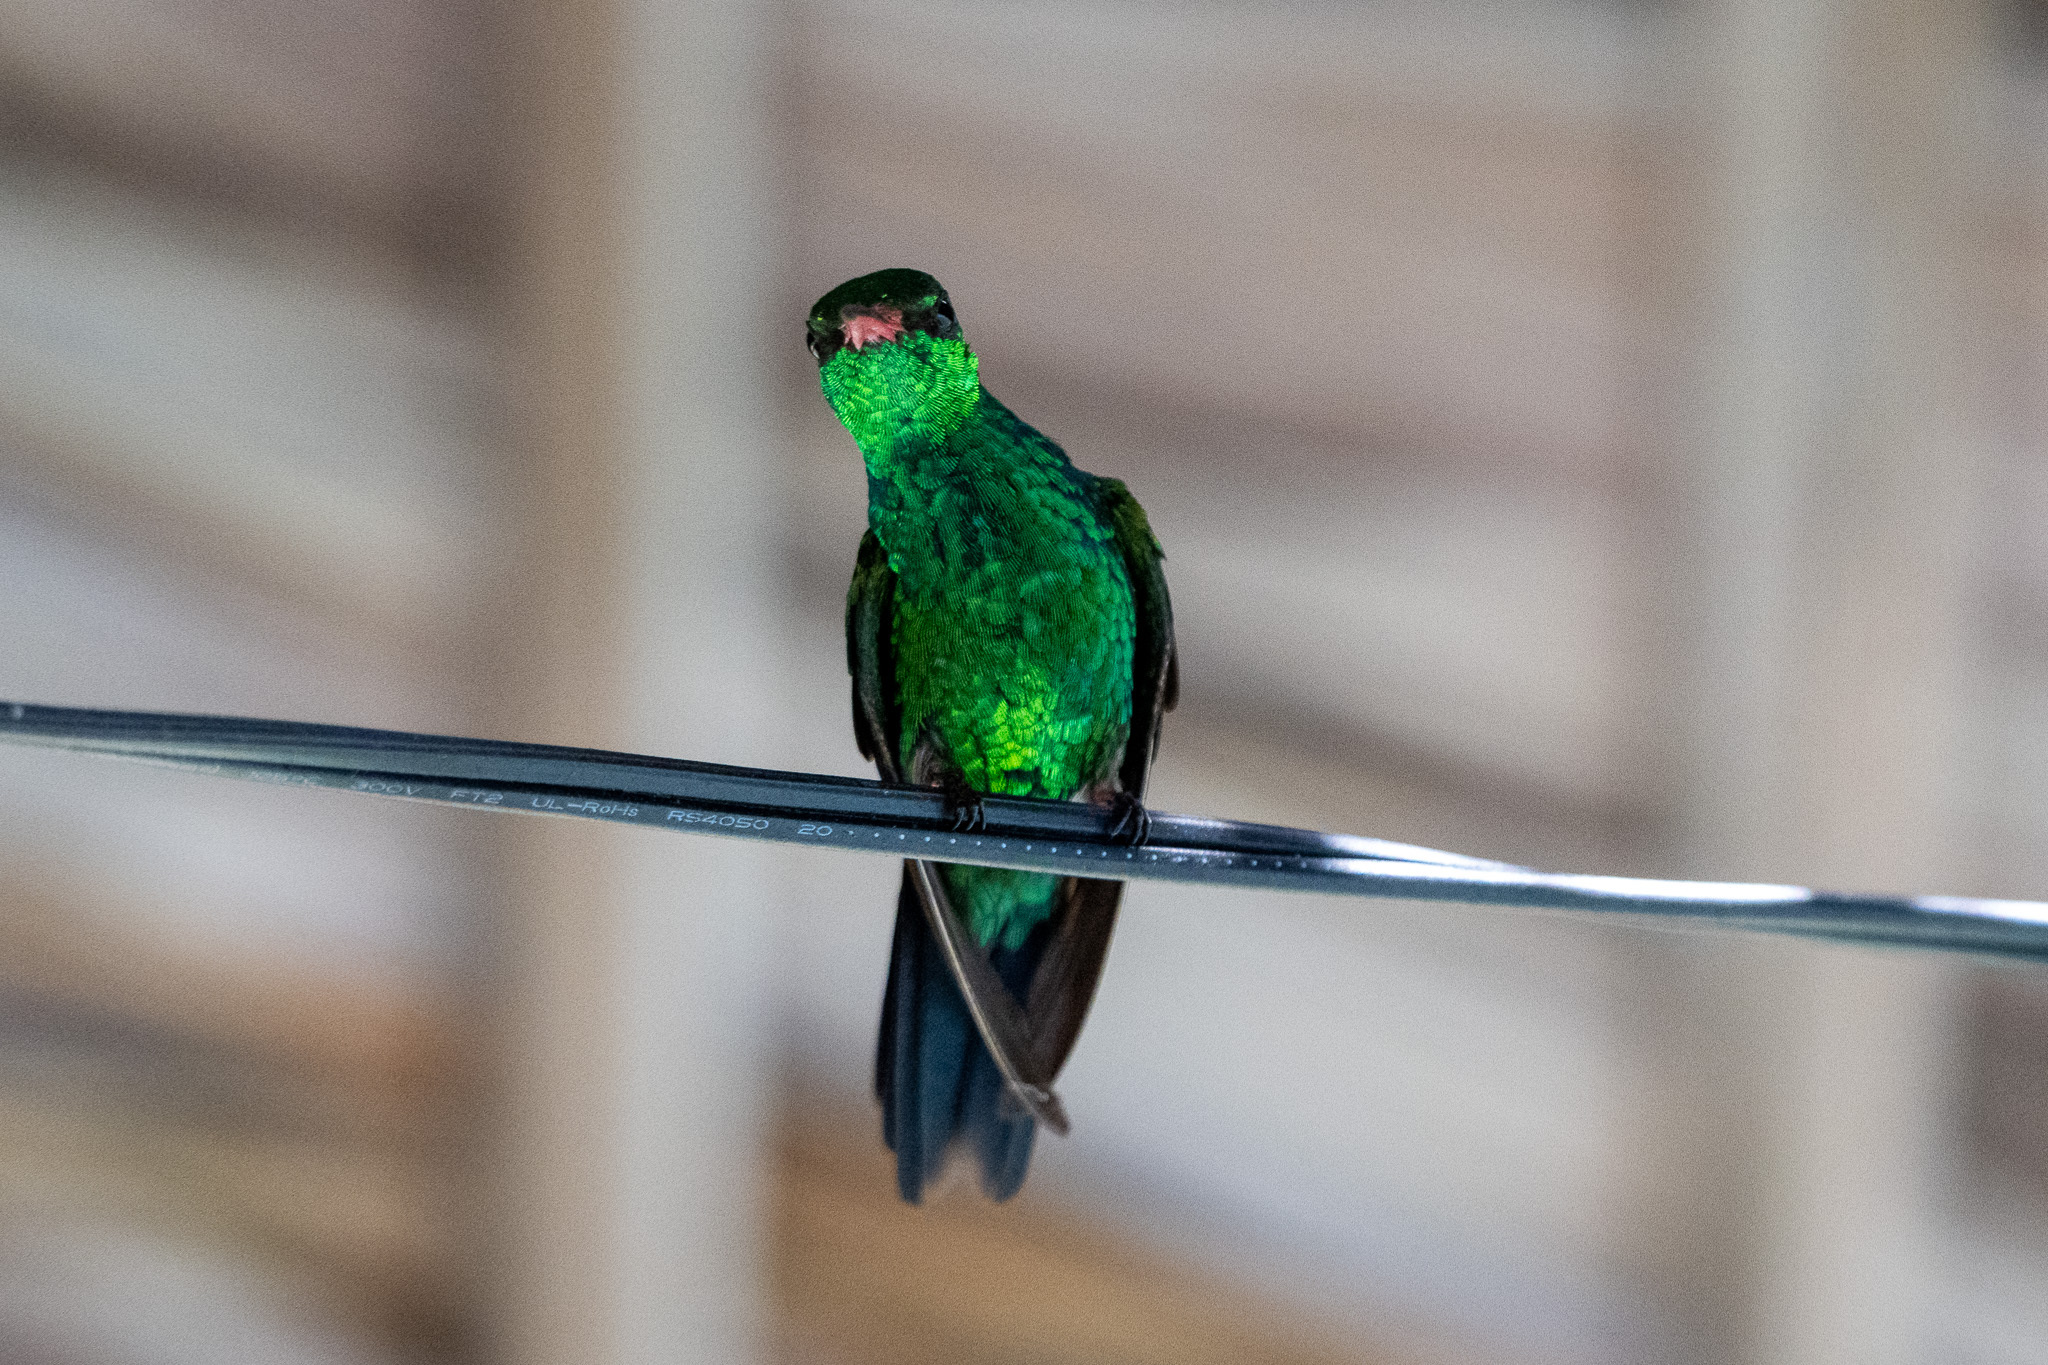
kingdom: Animalia
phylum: Chordata
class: Aves
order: Apodiformes
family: Trochilidae
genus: Cynanthus
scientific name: Cynanthus canivetii
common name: Canivet's emerald
